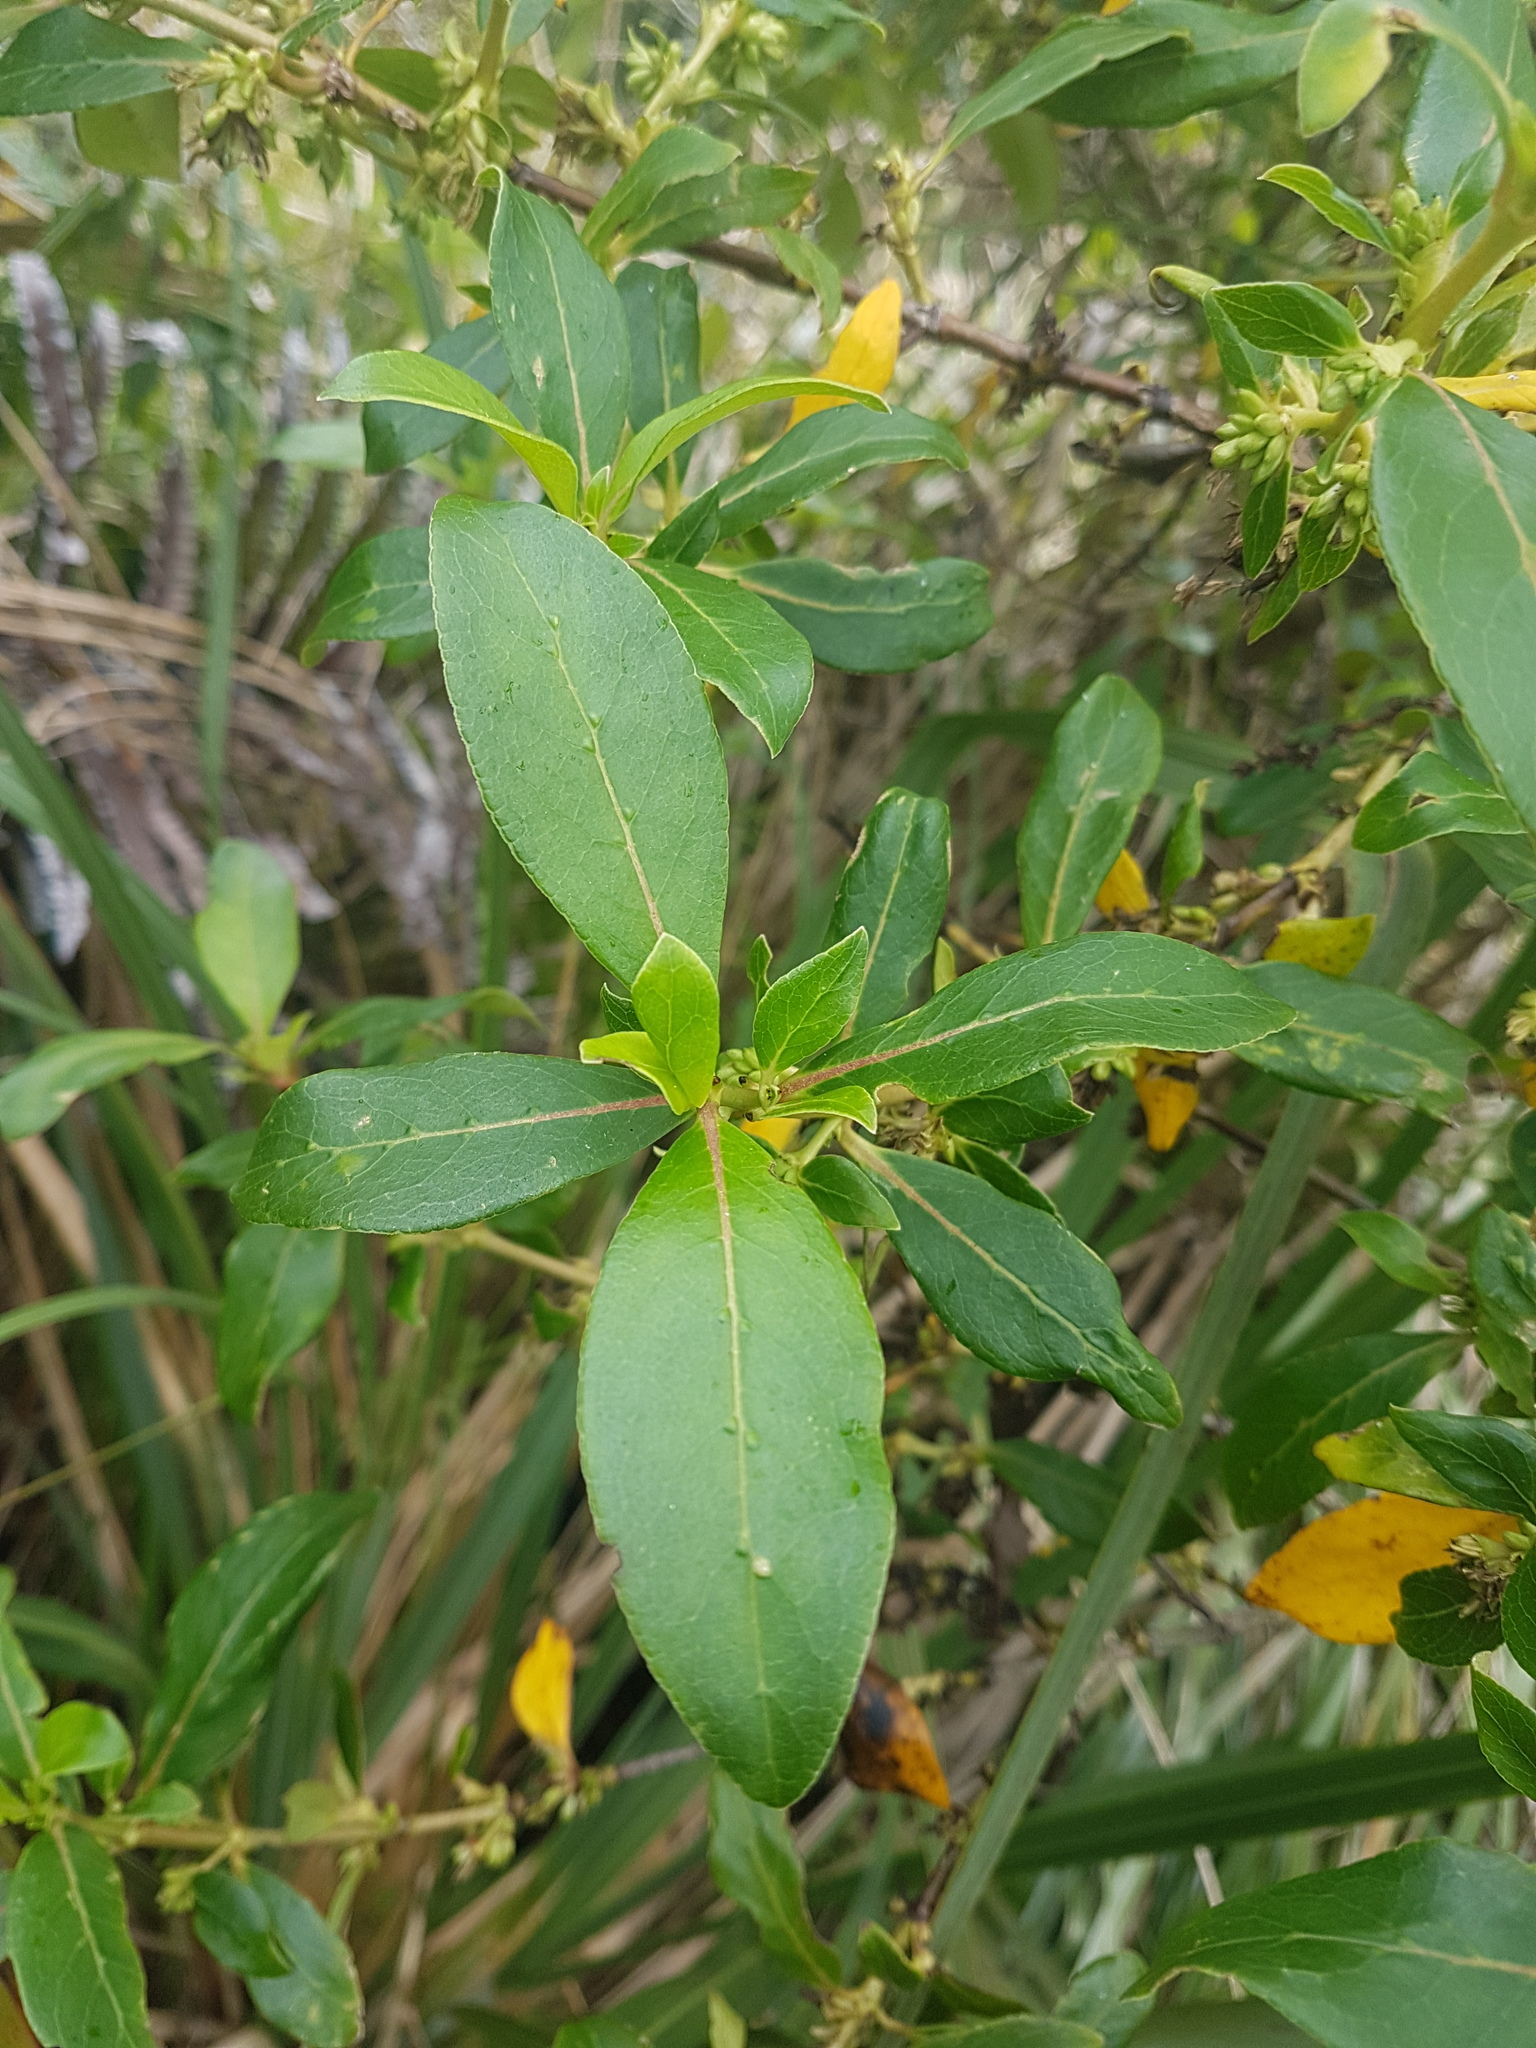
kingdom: Plantae
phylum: Tracheophyta
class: Magnoliopsida
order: Gentianales
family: Rubiaceae
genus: Coprosma
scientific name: Coprosma robusta
